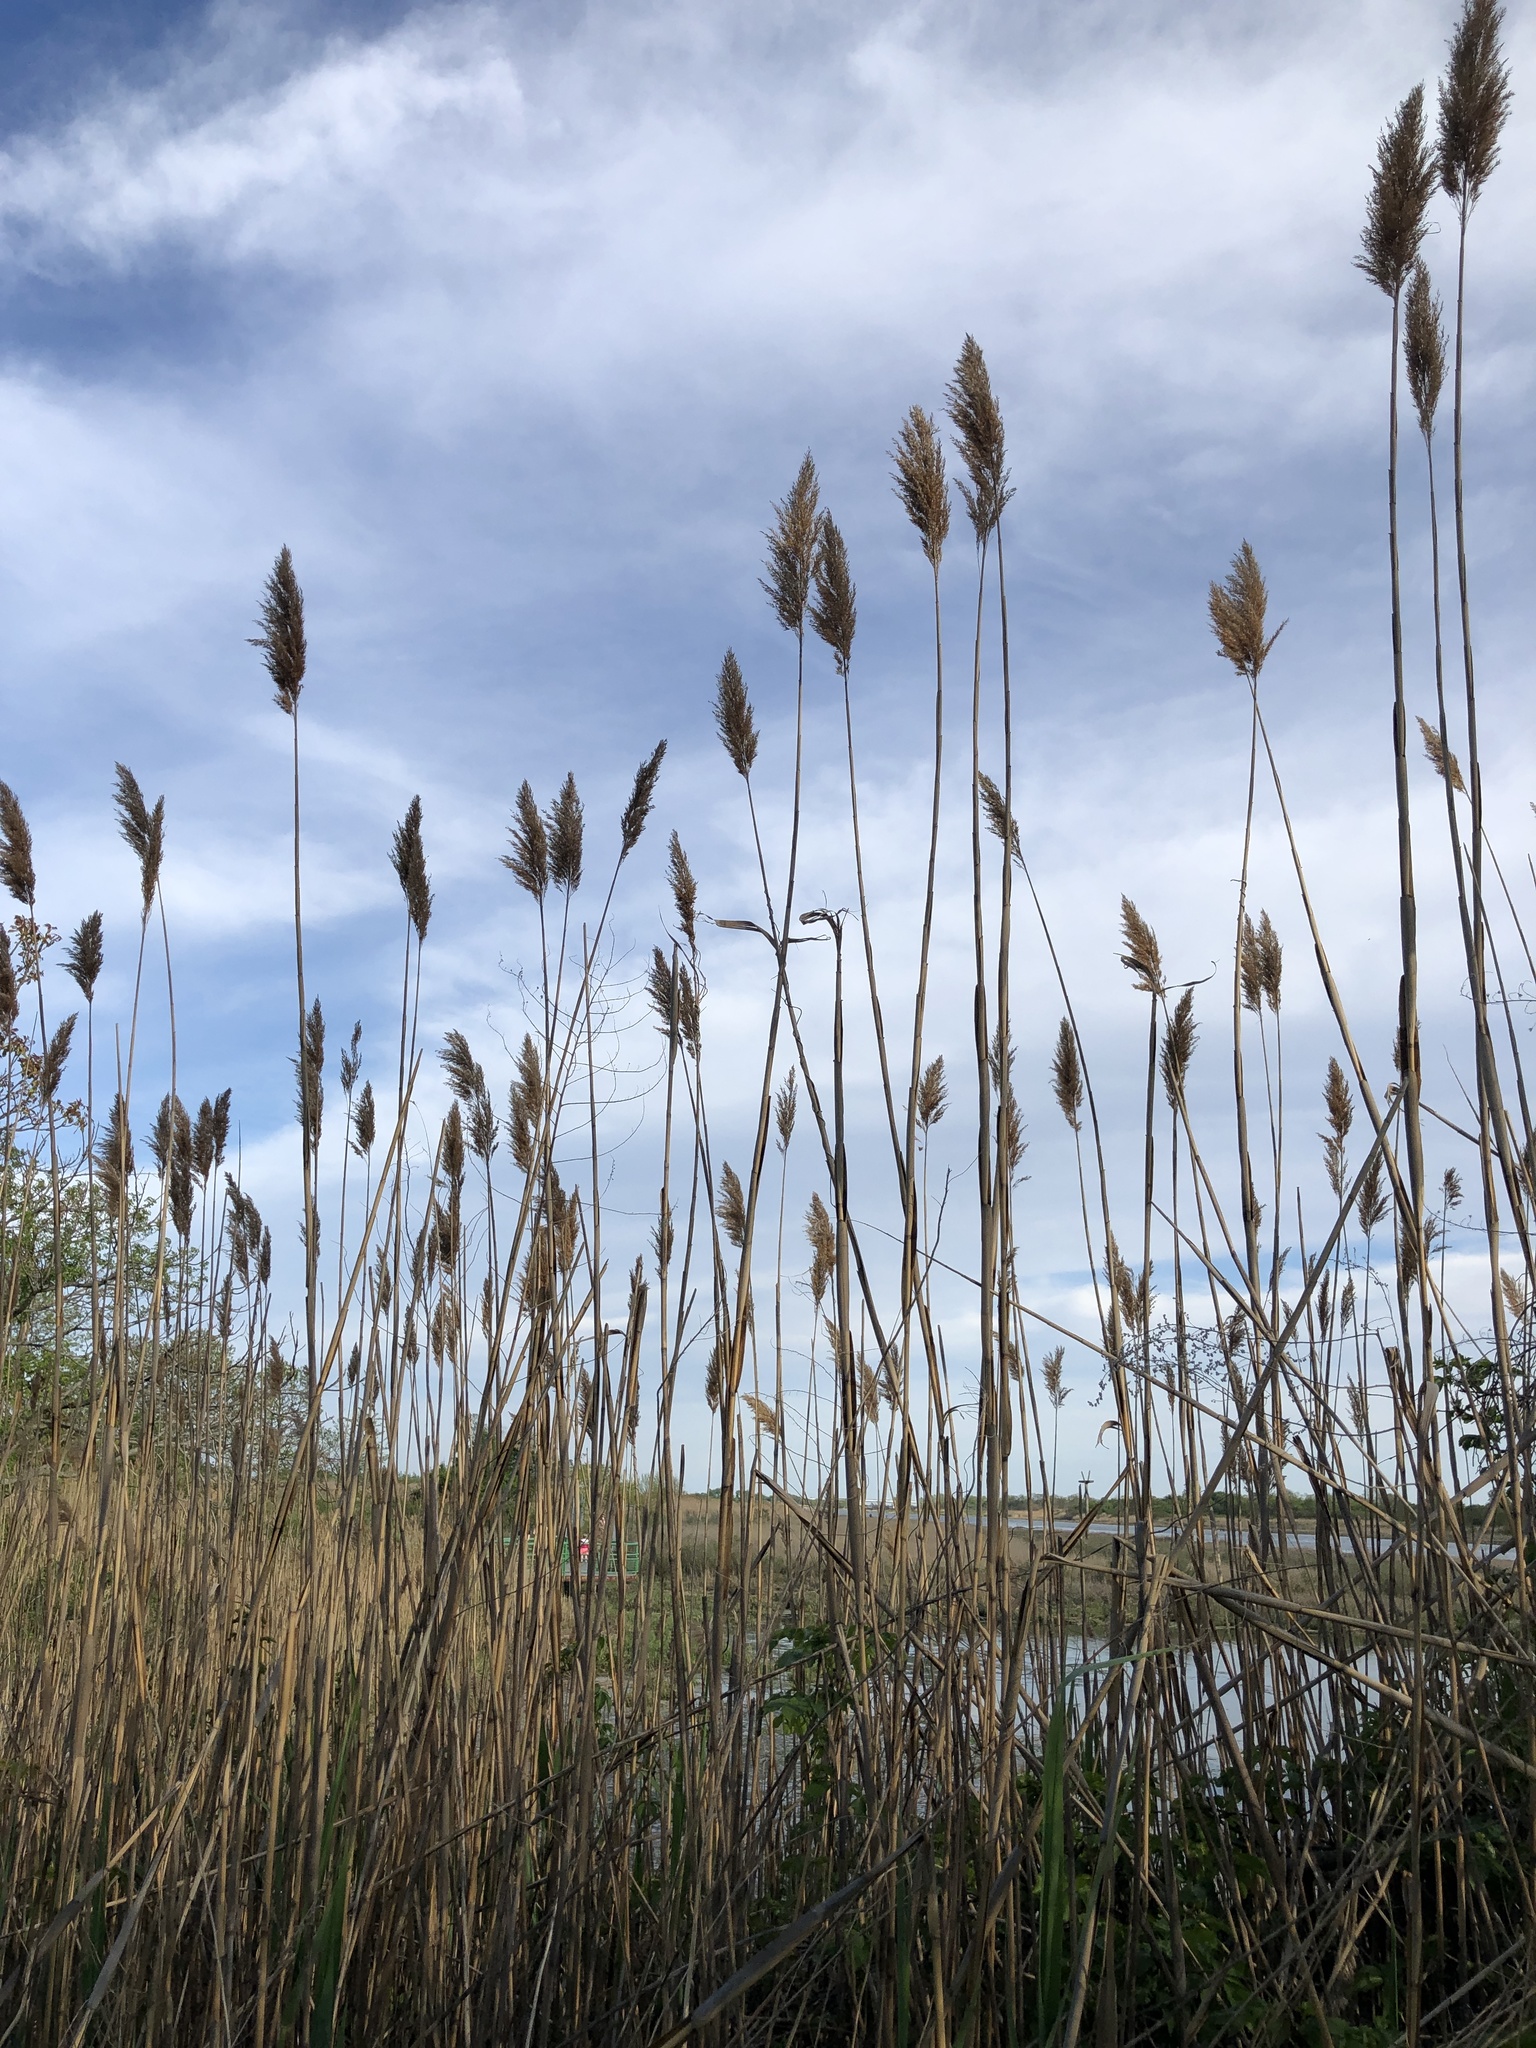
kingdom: Plantae
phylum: Tracheophyta
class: Liliopsida
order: Poales
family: Poaceae
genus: Phragmites
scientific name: Phragmites australis
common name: Common reed
